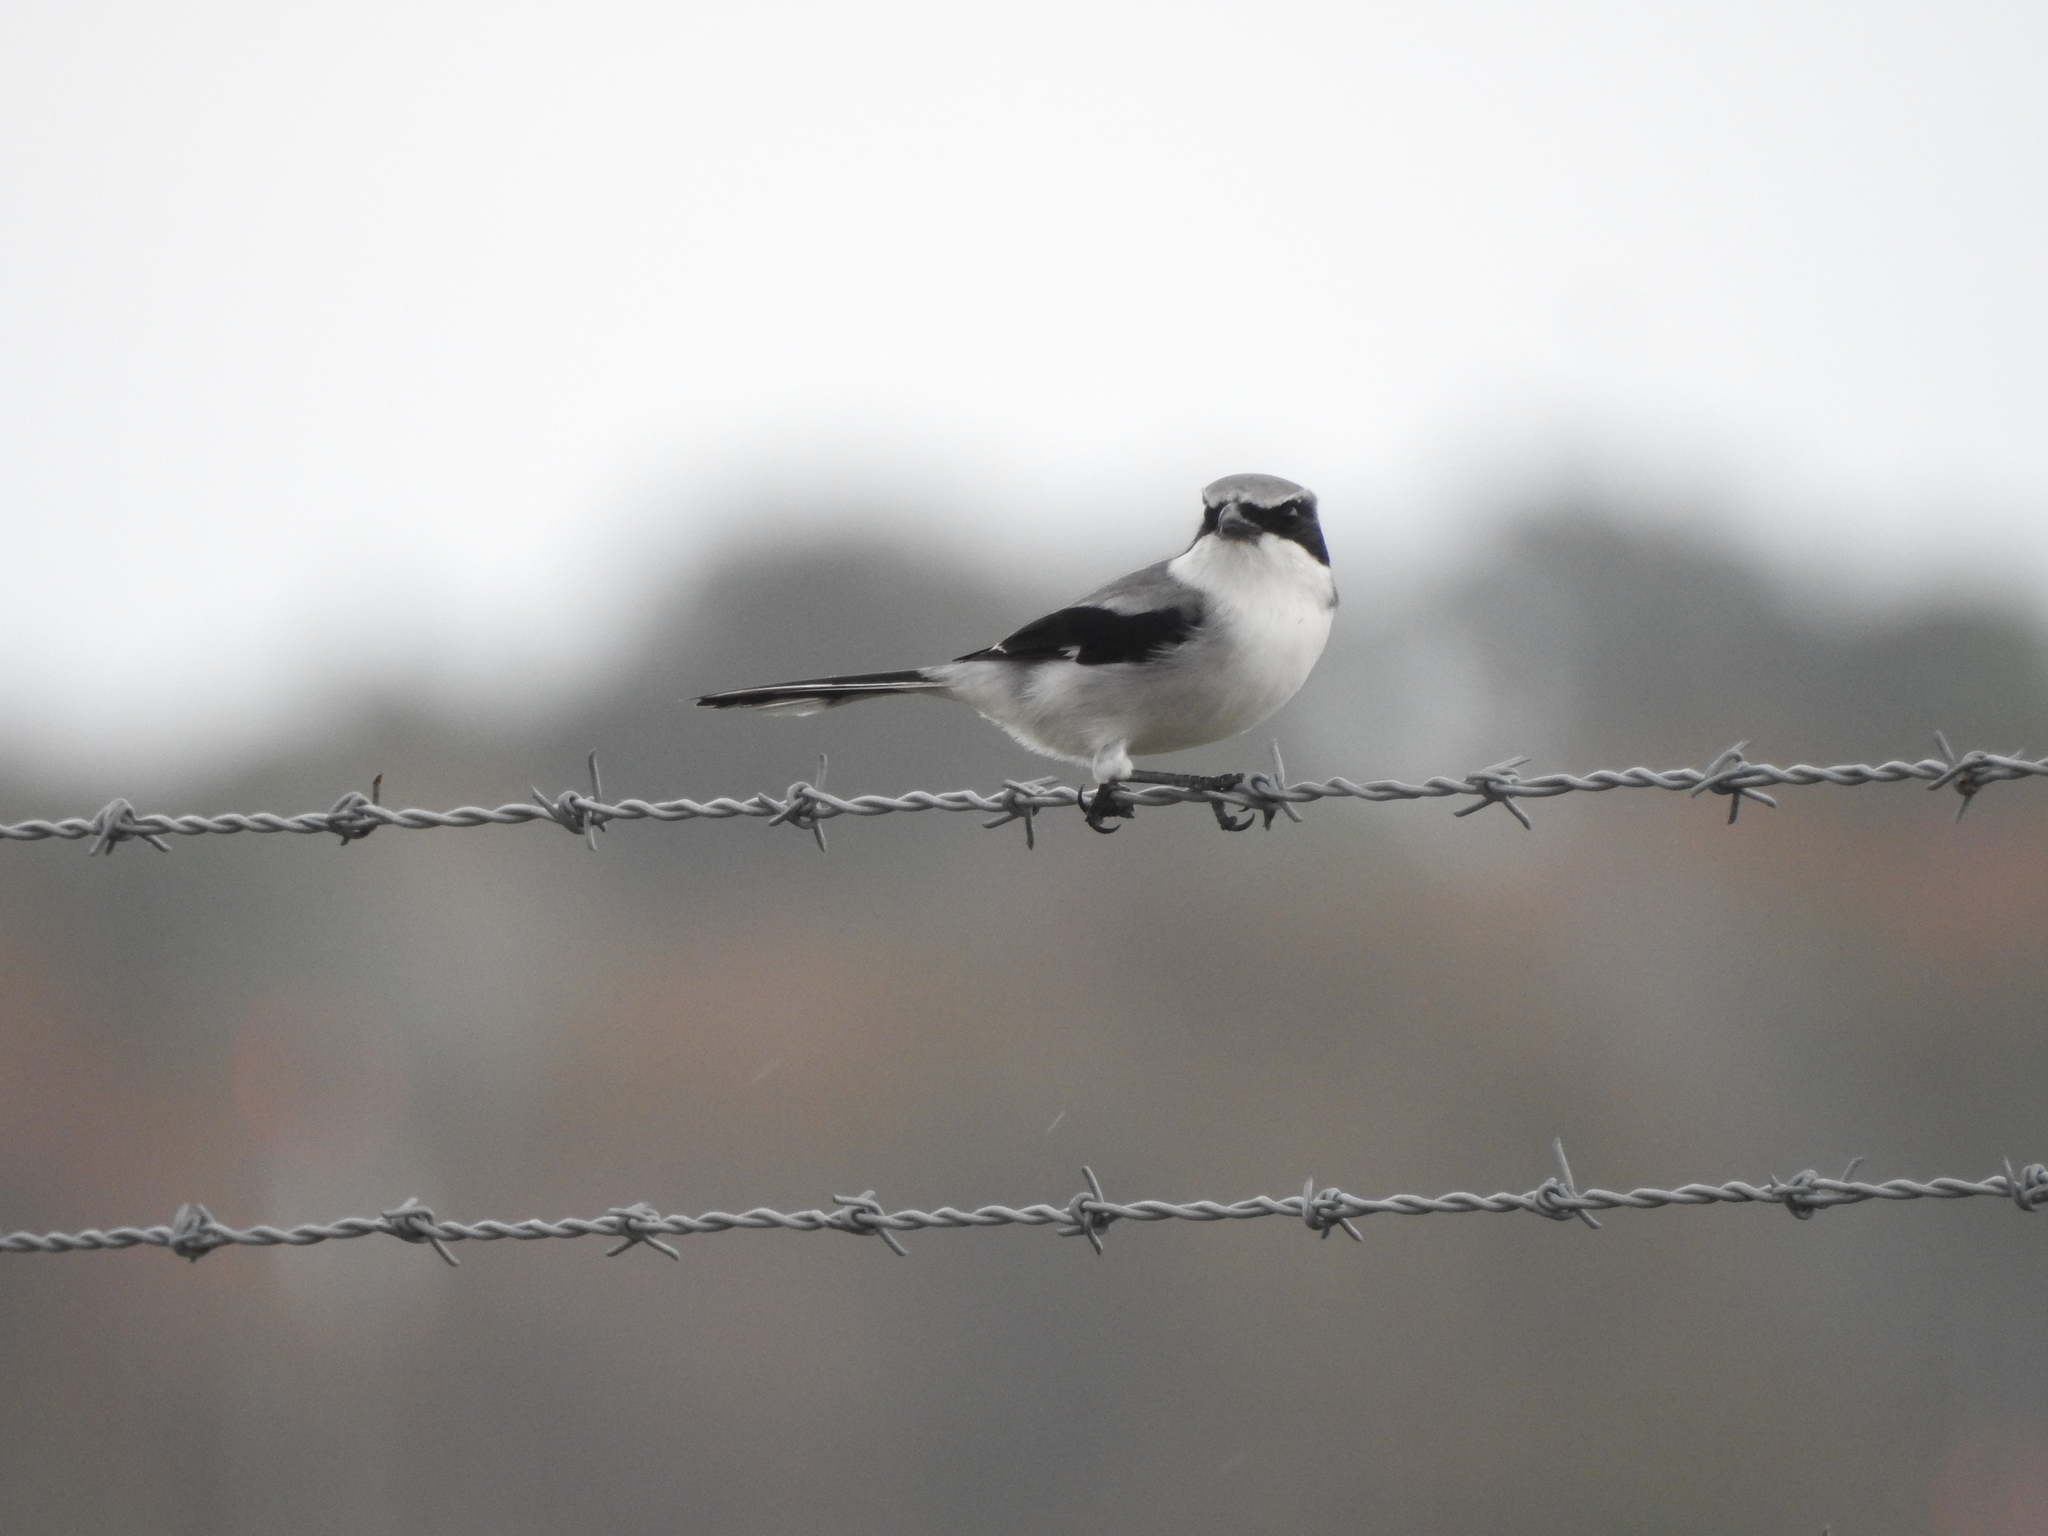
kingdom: Animalia
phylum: Chordata
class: Aves
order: Passeriformes
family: Laniidae
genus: Lanius
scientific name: Lanius ludovicianus
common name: Loggerhead shrike
